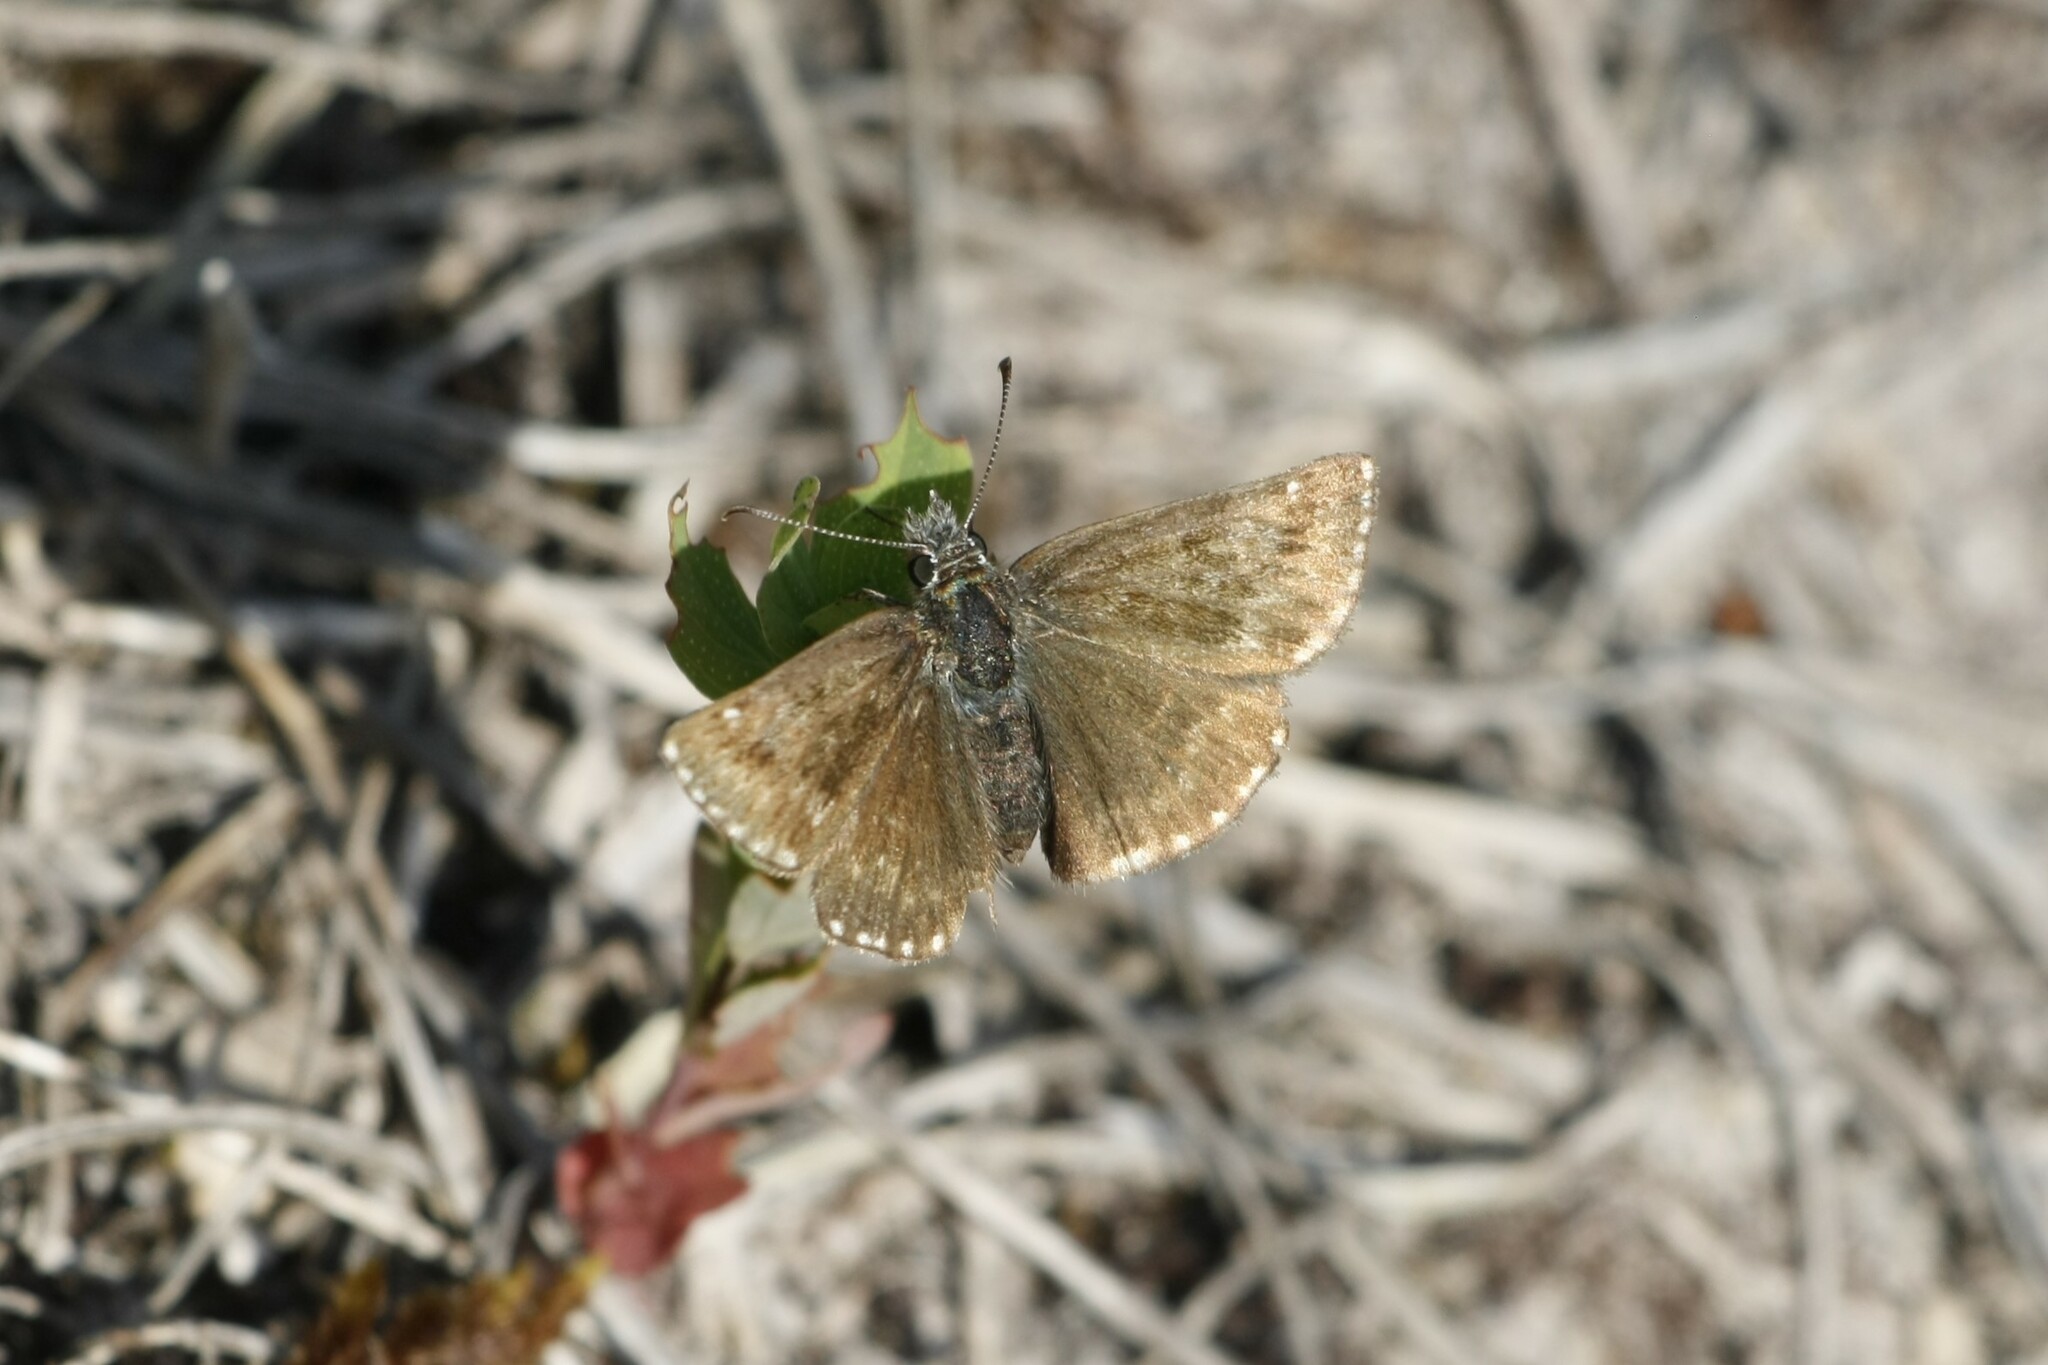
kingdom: Animalia
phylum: Arthropoda
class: Insecta
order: Lepidoptera
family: Hesperiidae
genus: Erynnis
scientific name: Erynnis tages
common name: Dingy skipper
